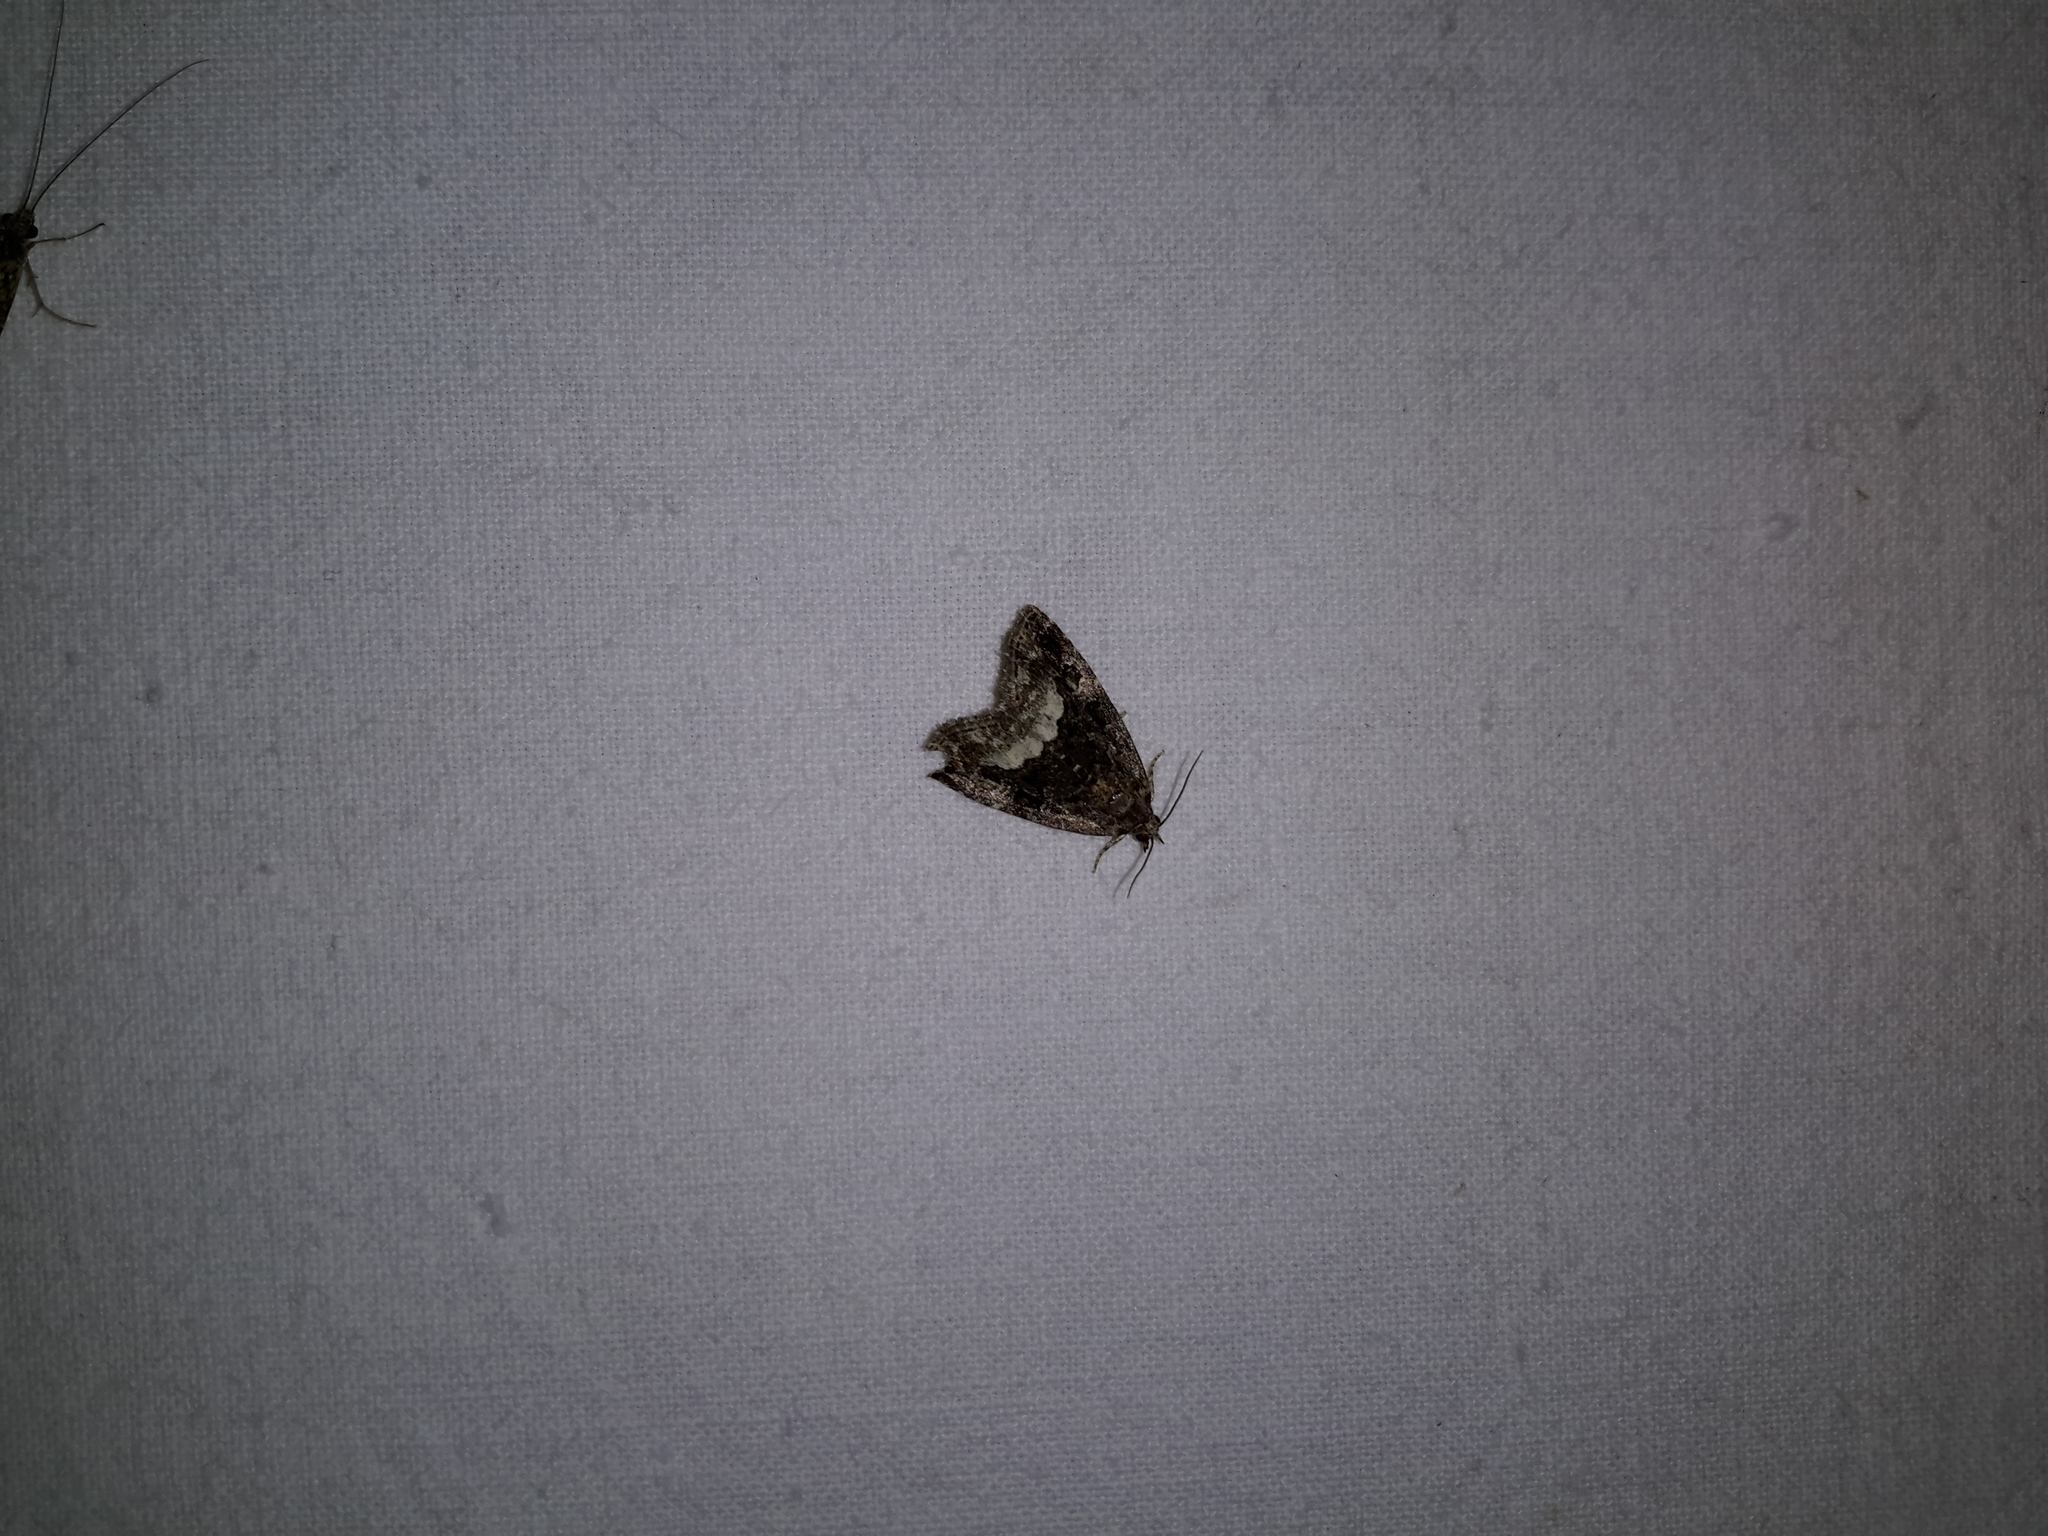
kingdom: Animalia
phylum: Arthropoda
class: Insecta
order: Lepidoptera
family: Noctuidae
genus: Deltote
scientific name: Deltote pygarga
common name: Marbled white spot
